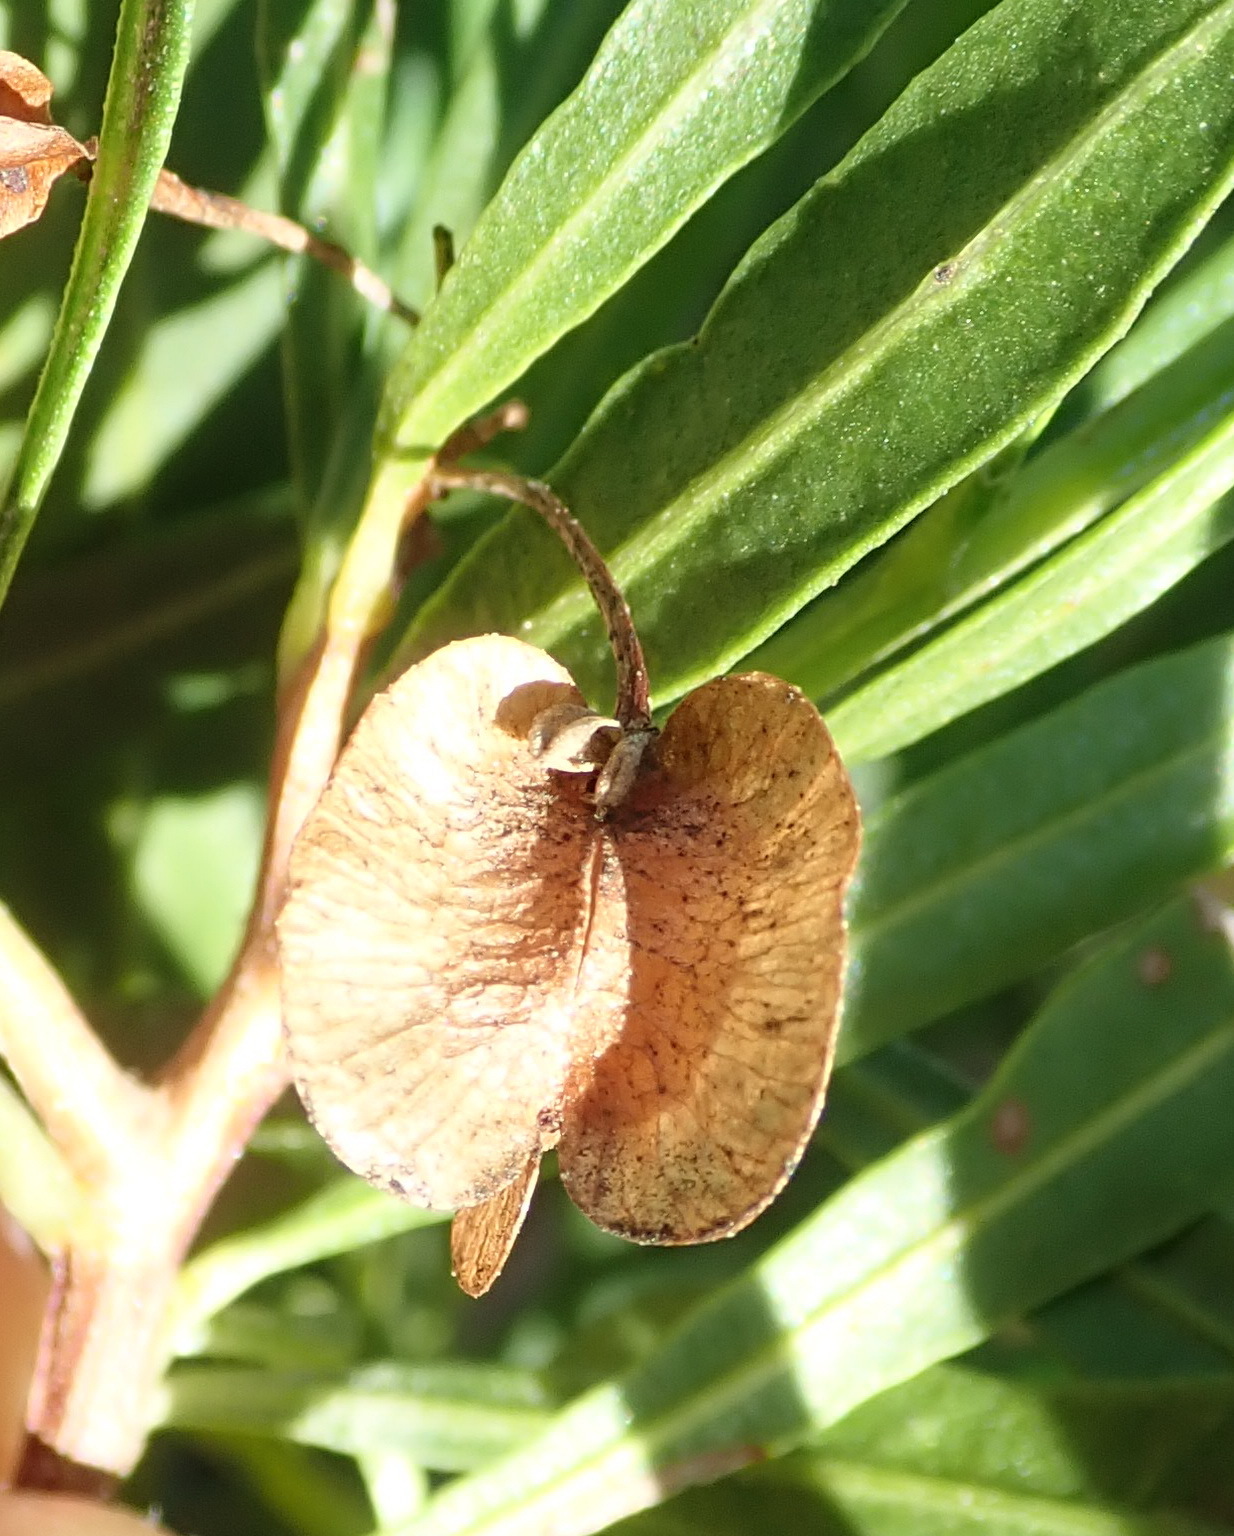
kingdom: Plantae
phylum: Tracheophyta
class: Magnoliopsida
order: Sapindales
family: Sapindaceae
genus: Dodonaea
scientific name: Dodonaea viscosa
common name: Hopbush
